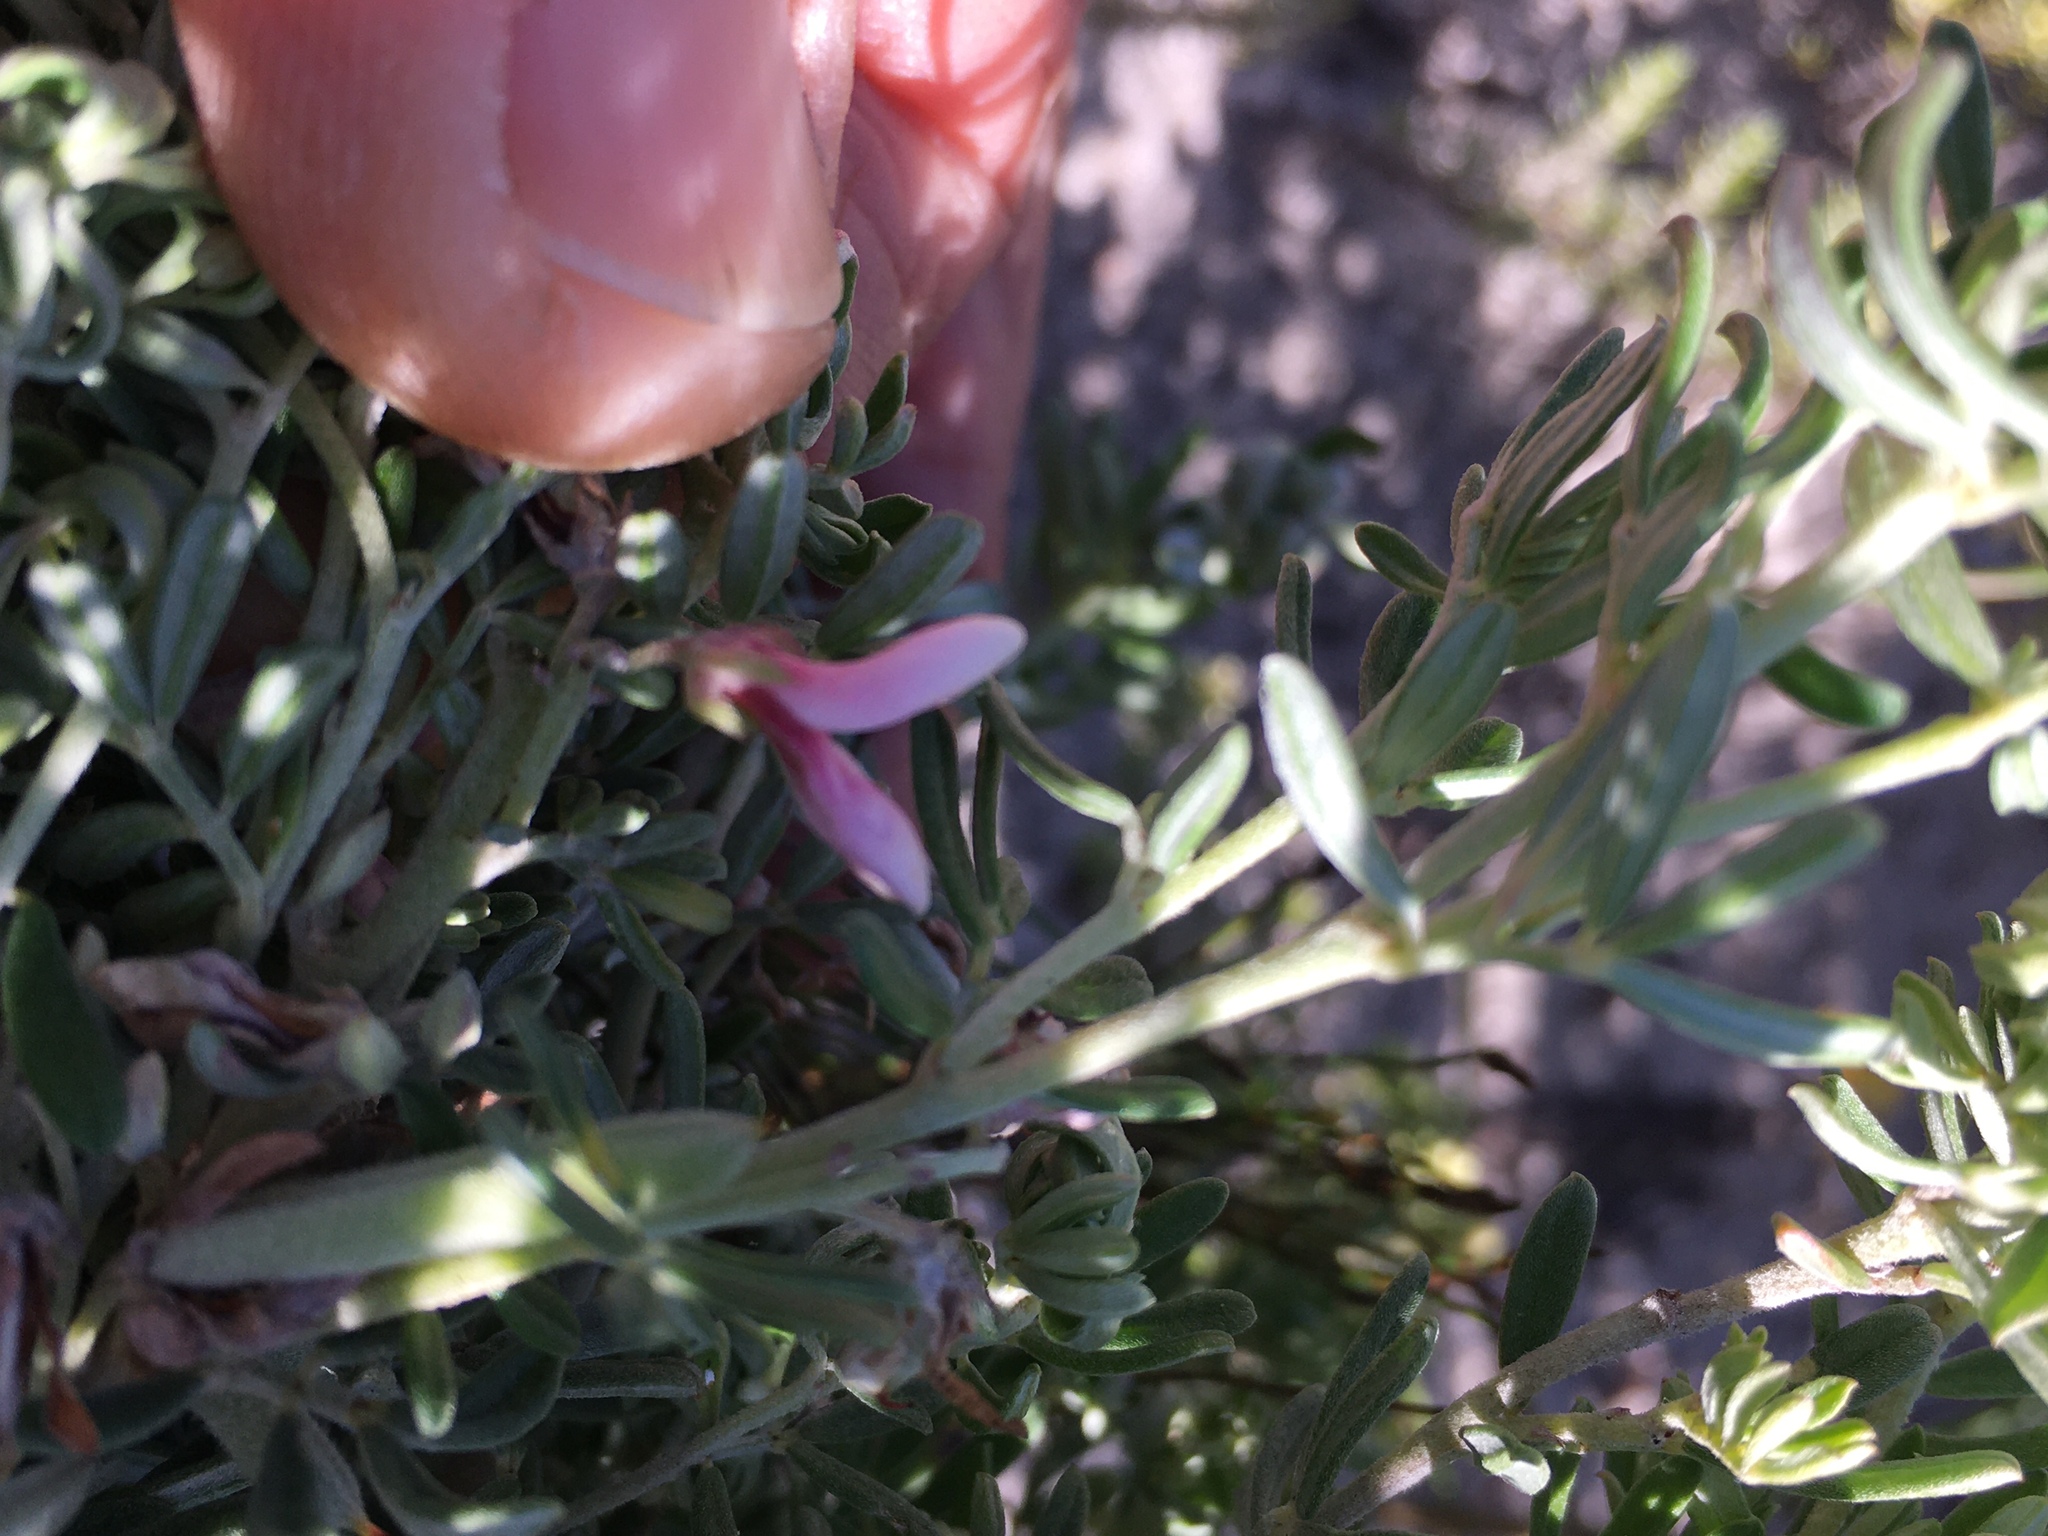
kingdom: Plantae
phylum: Tracheophyta
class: Magnoliopsida
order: Fabales
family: Fabaceae
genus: Indigofera
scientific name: Indigofera brachystachya
